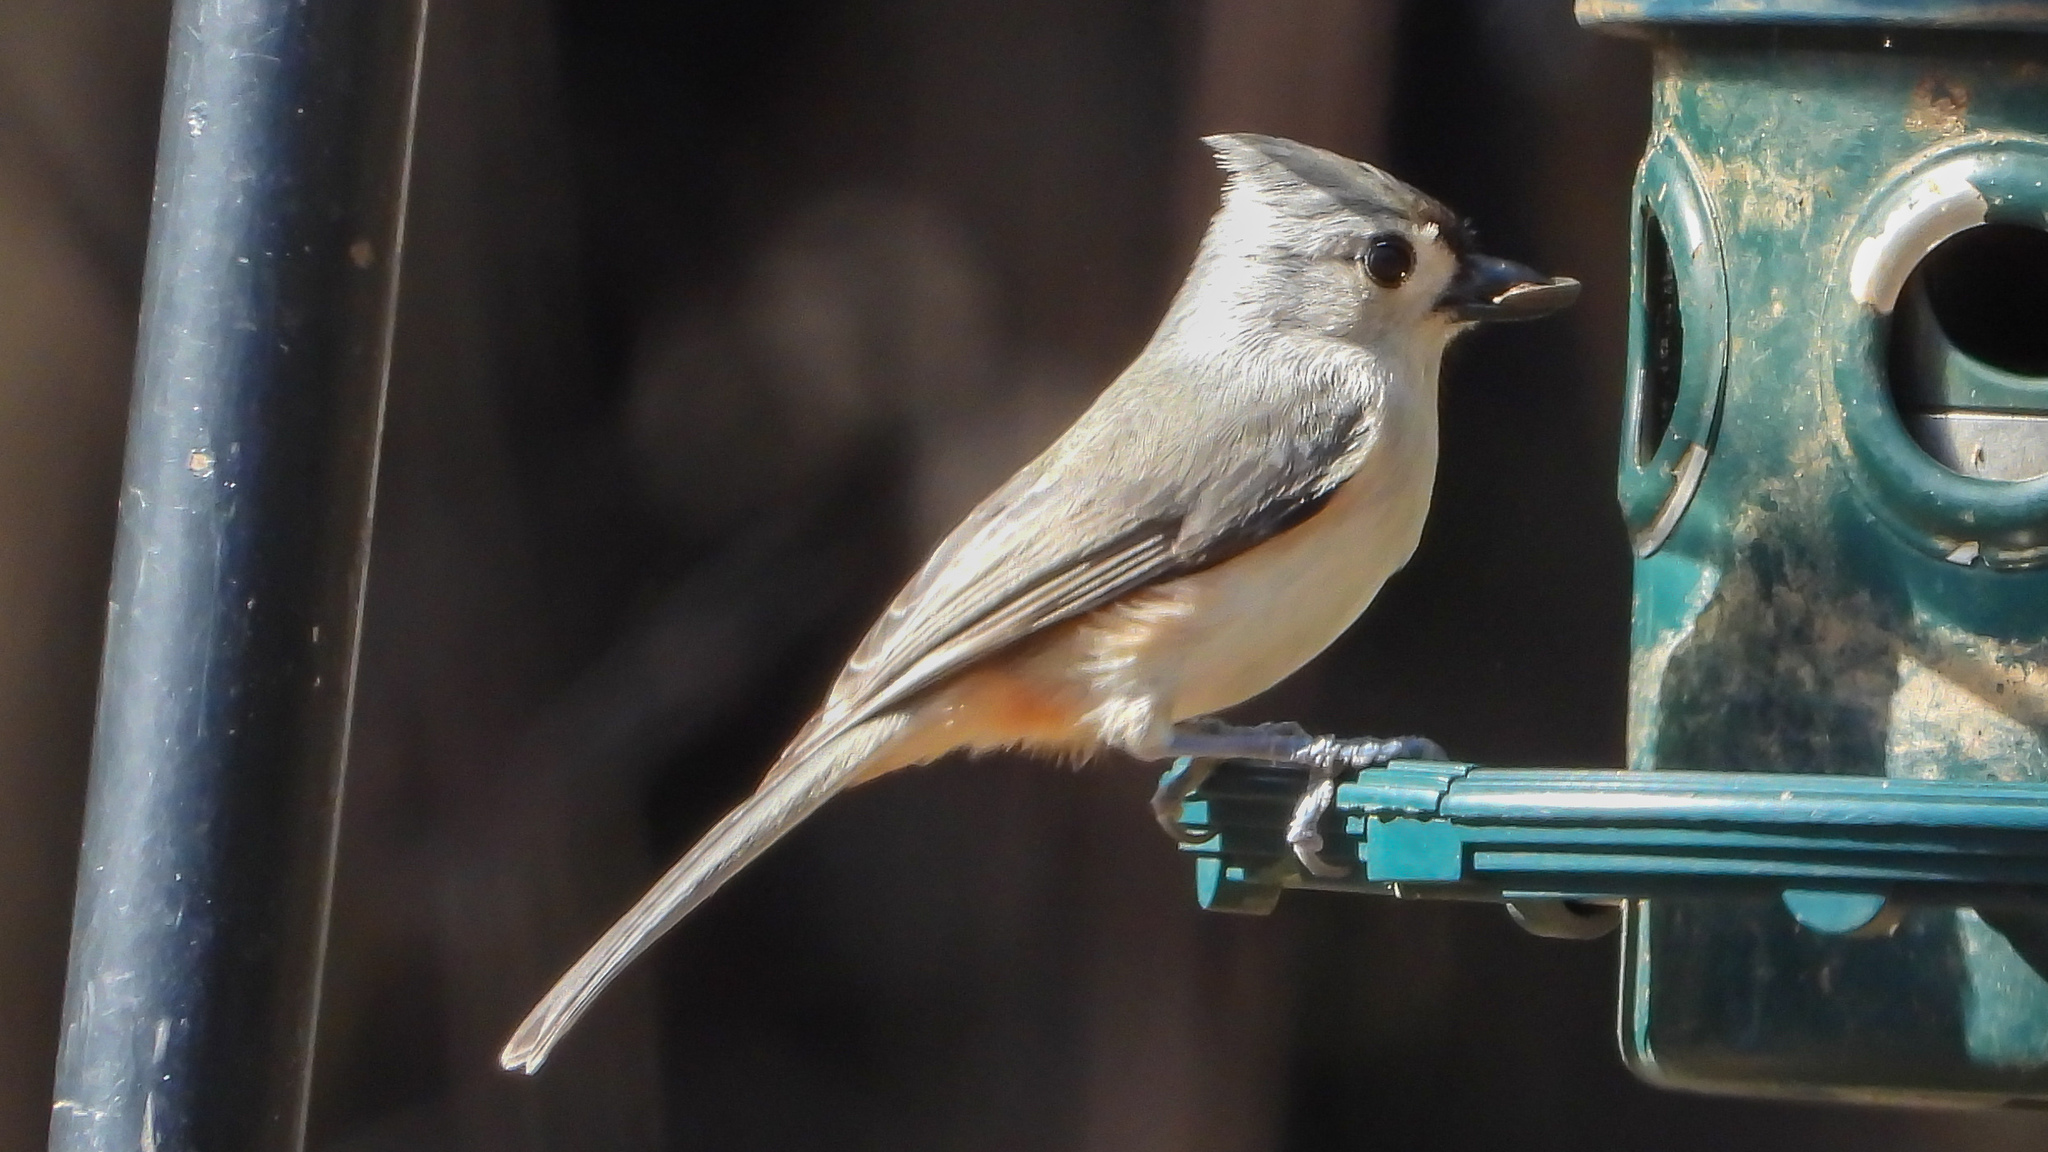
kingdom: Animalia
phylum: Chordata
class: Aves
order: Passeriformes
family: Paridae
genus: Baeolophus
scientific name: Baeolophus bicolor
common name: Tufted titmouse
